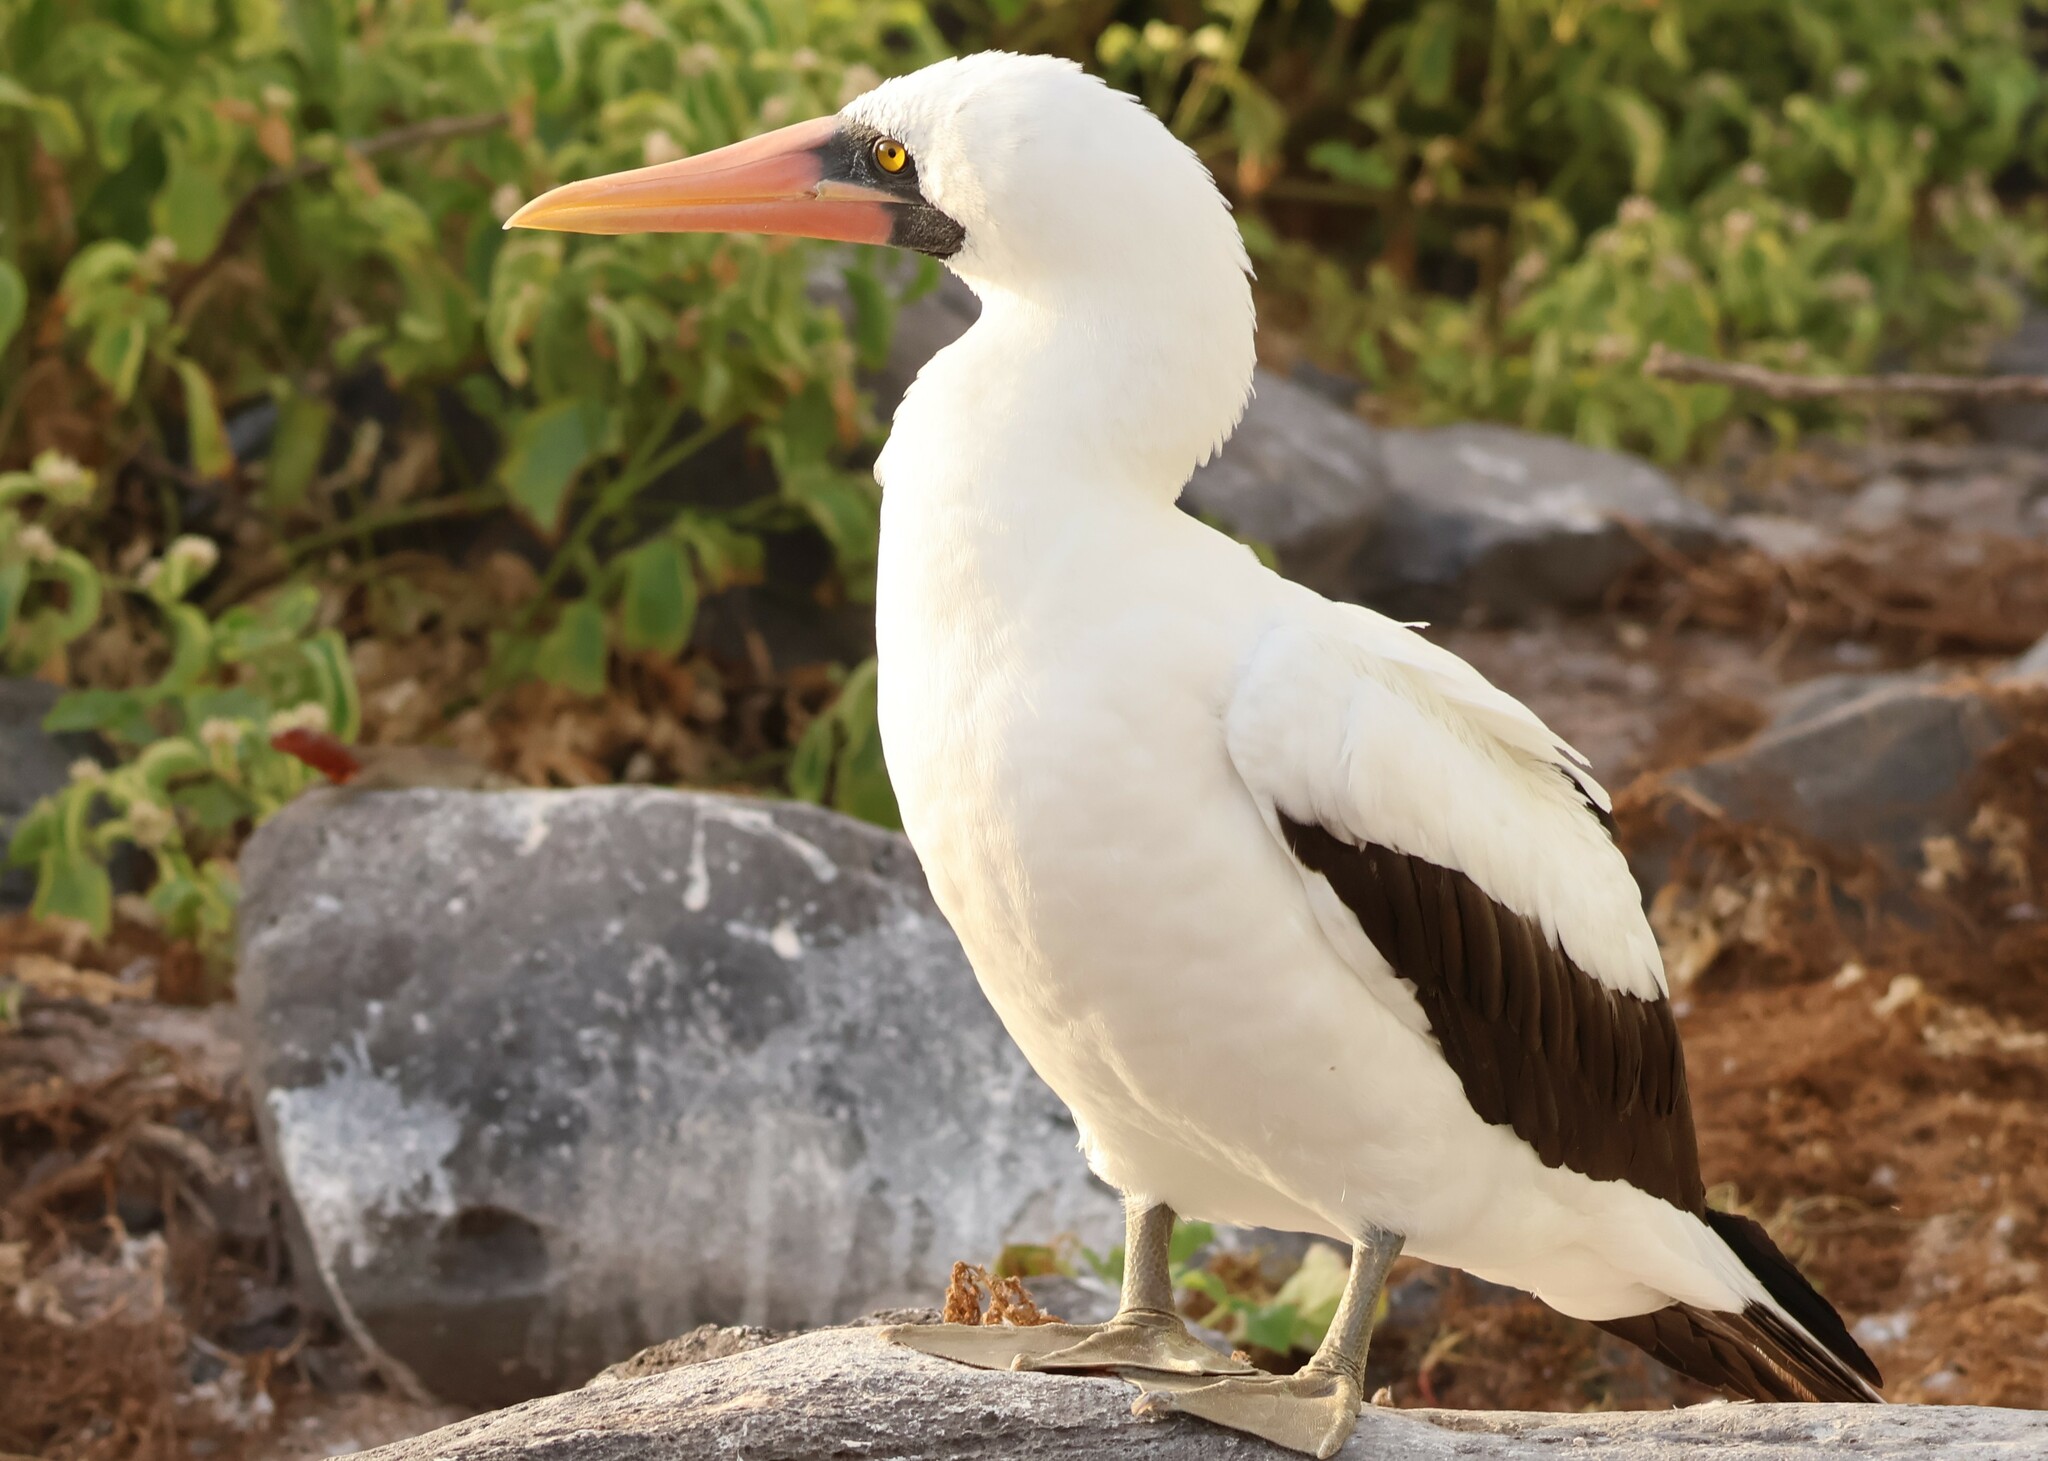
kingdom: Animalia
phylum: Chordata
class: Aves
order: Suliformes
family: Sulidae
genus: Sula
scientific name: Sula granti
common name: Nazca booby
